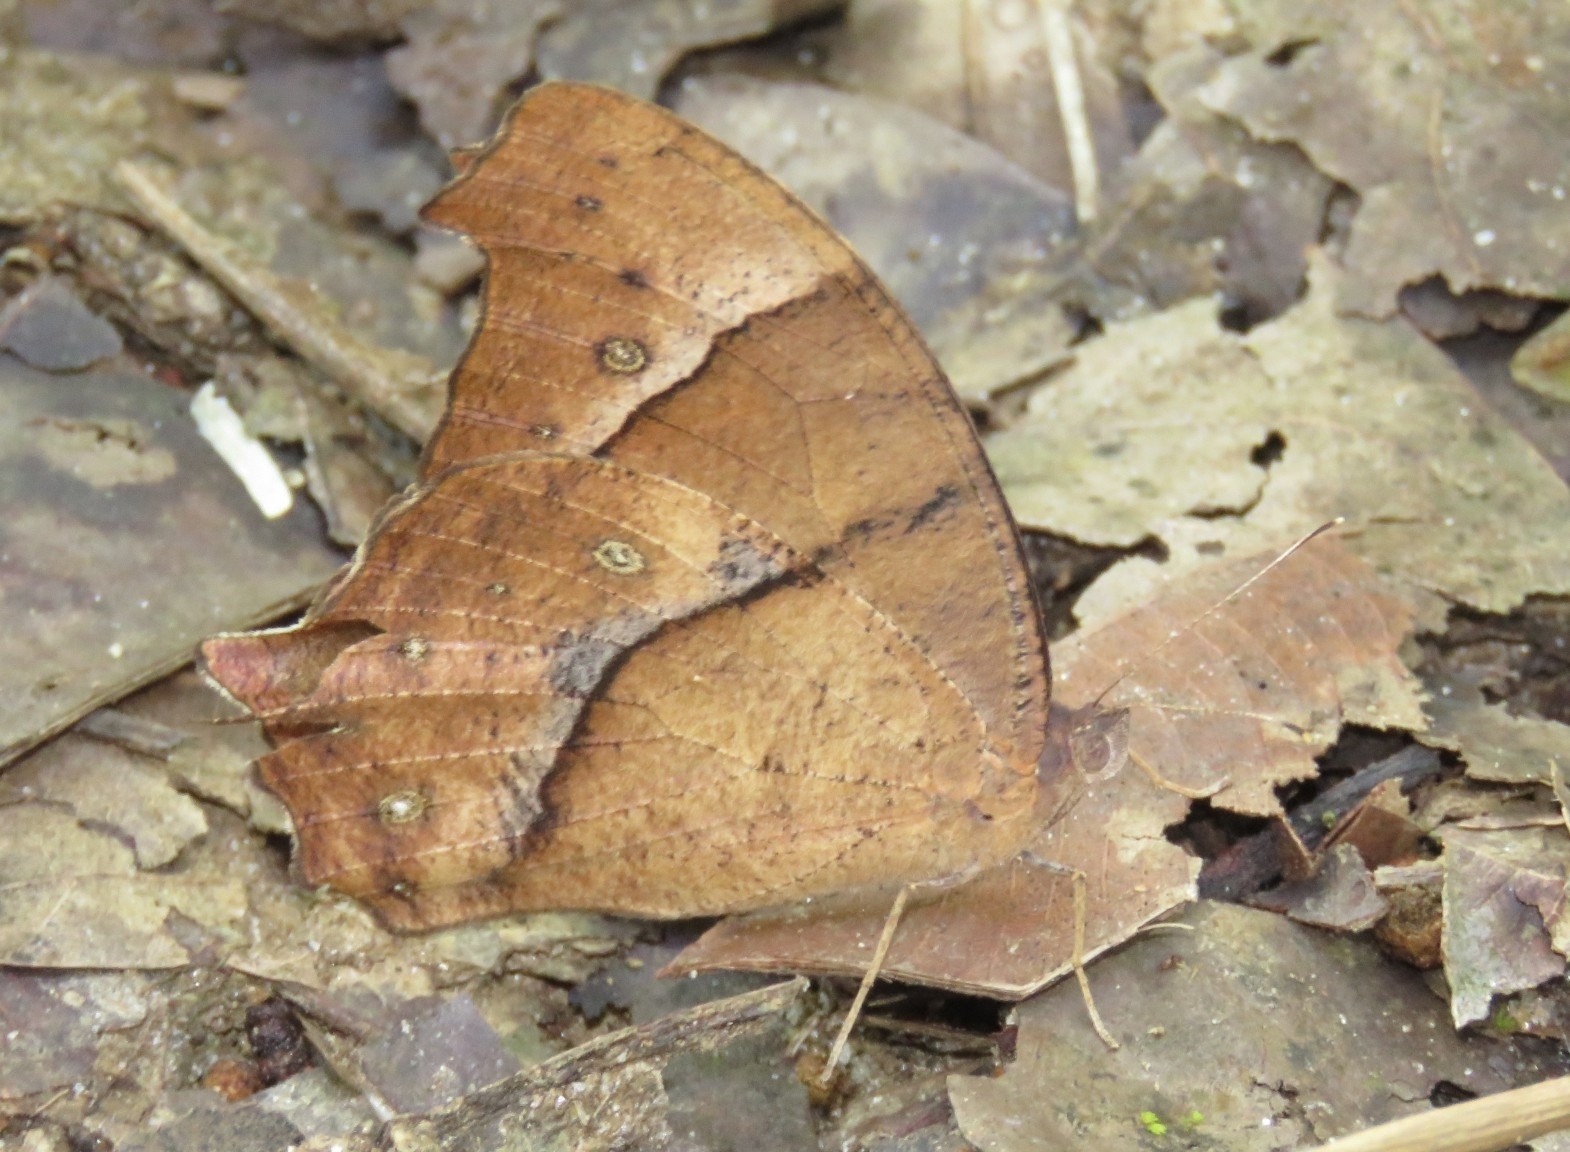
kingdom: Animalia
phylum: Arthropoda
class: Insecta
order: Lepidoptera
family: Nymphalidae
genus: Melanitis
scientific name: Melanitis leda
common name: Twilight brown
